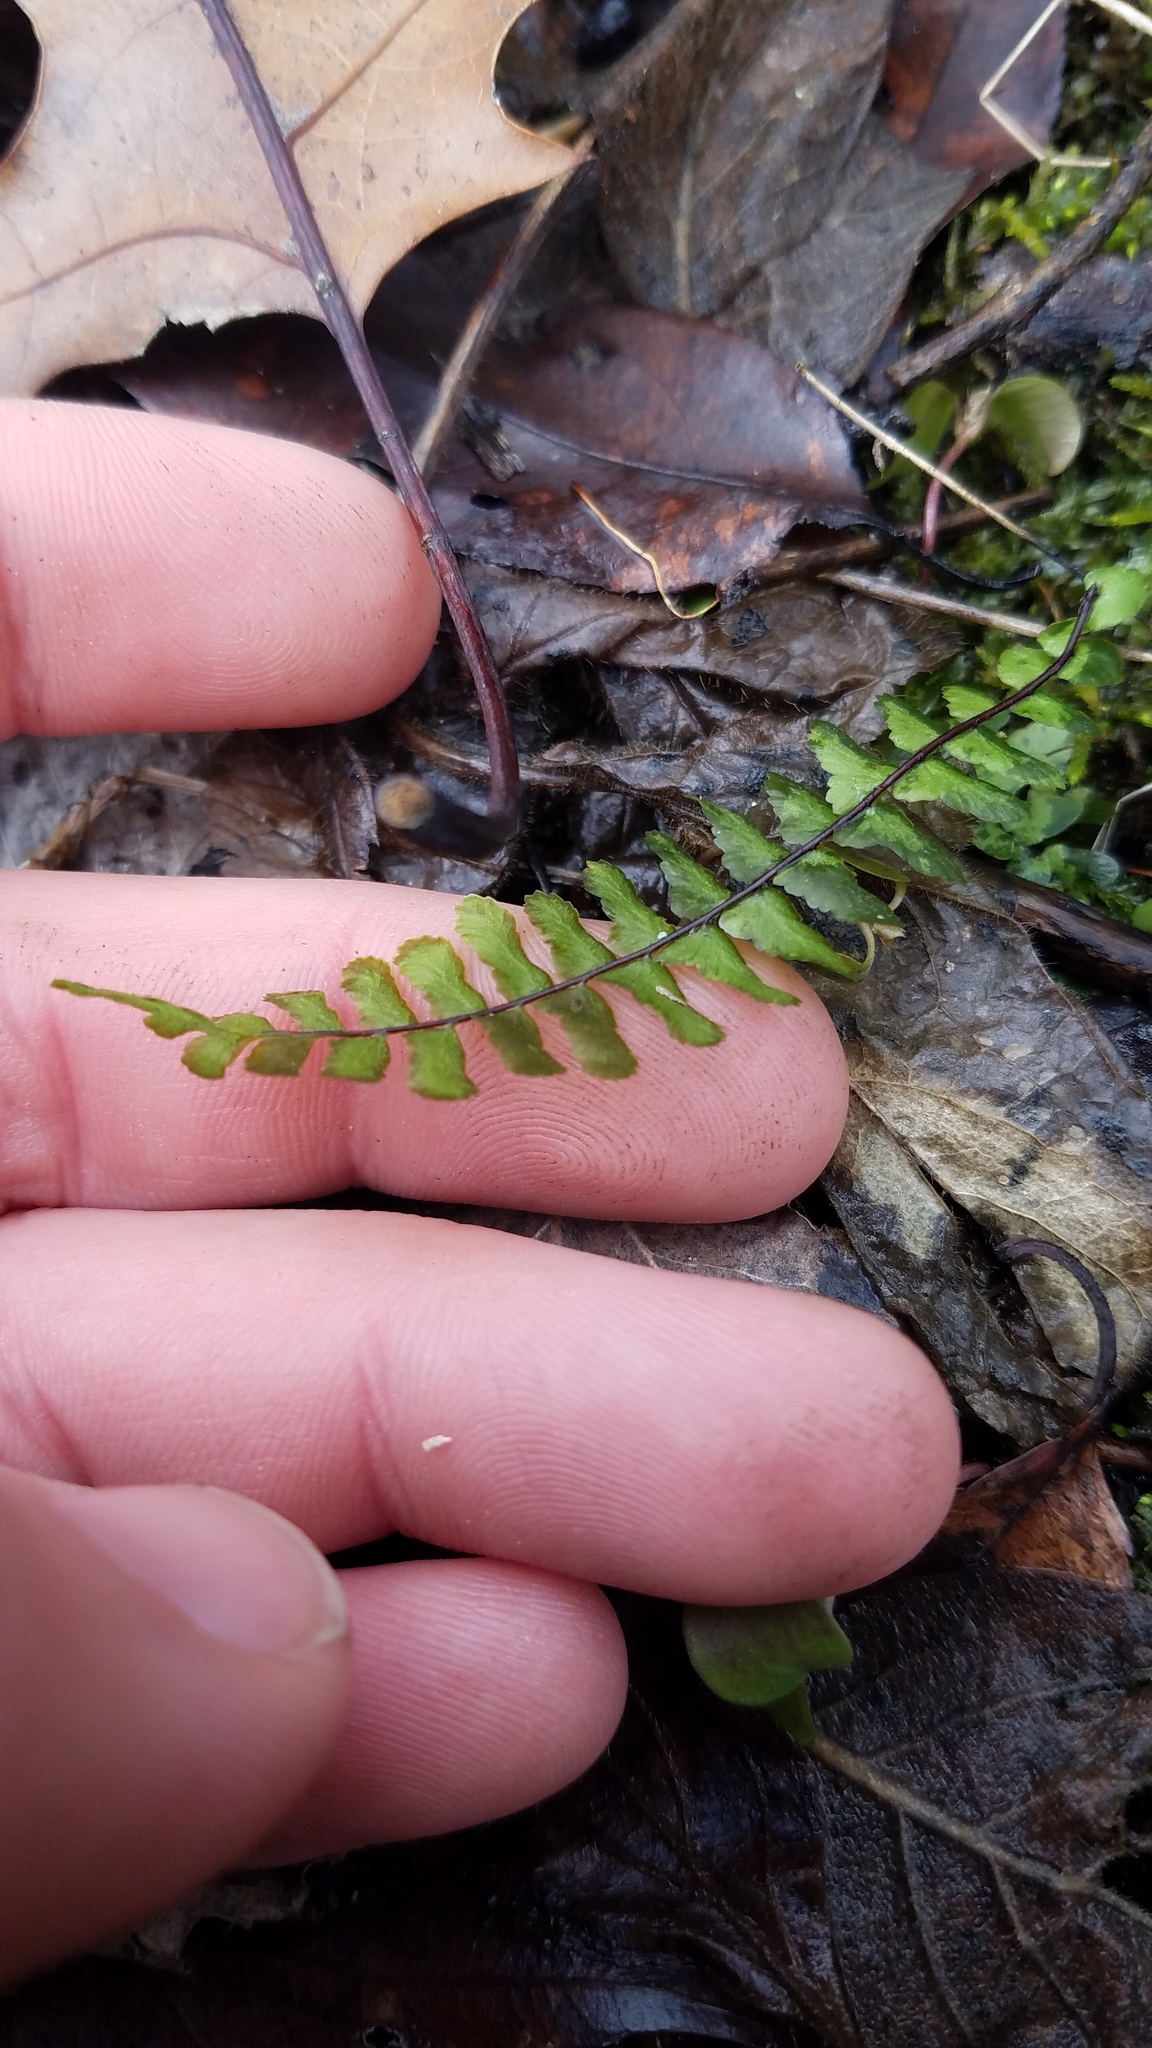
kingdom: Plantae
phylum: Tracheophyta
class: Polypodiopsida
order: Polypodiales
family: Aspleniaceae
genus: Asplenium
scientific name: Asplenium platyneuron
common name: Ebony spleenwort
